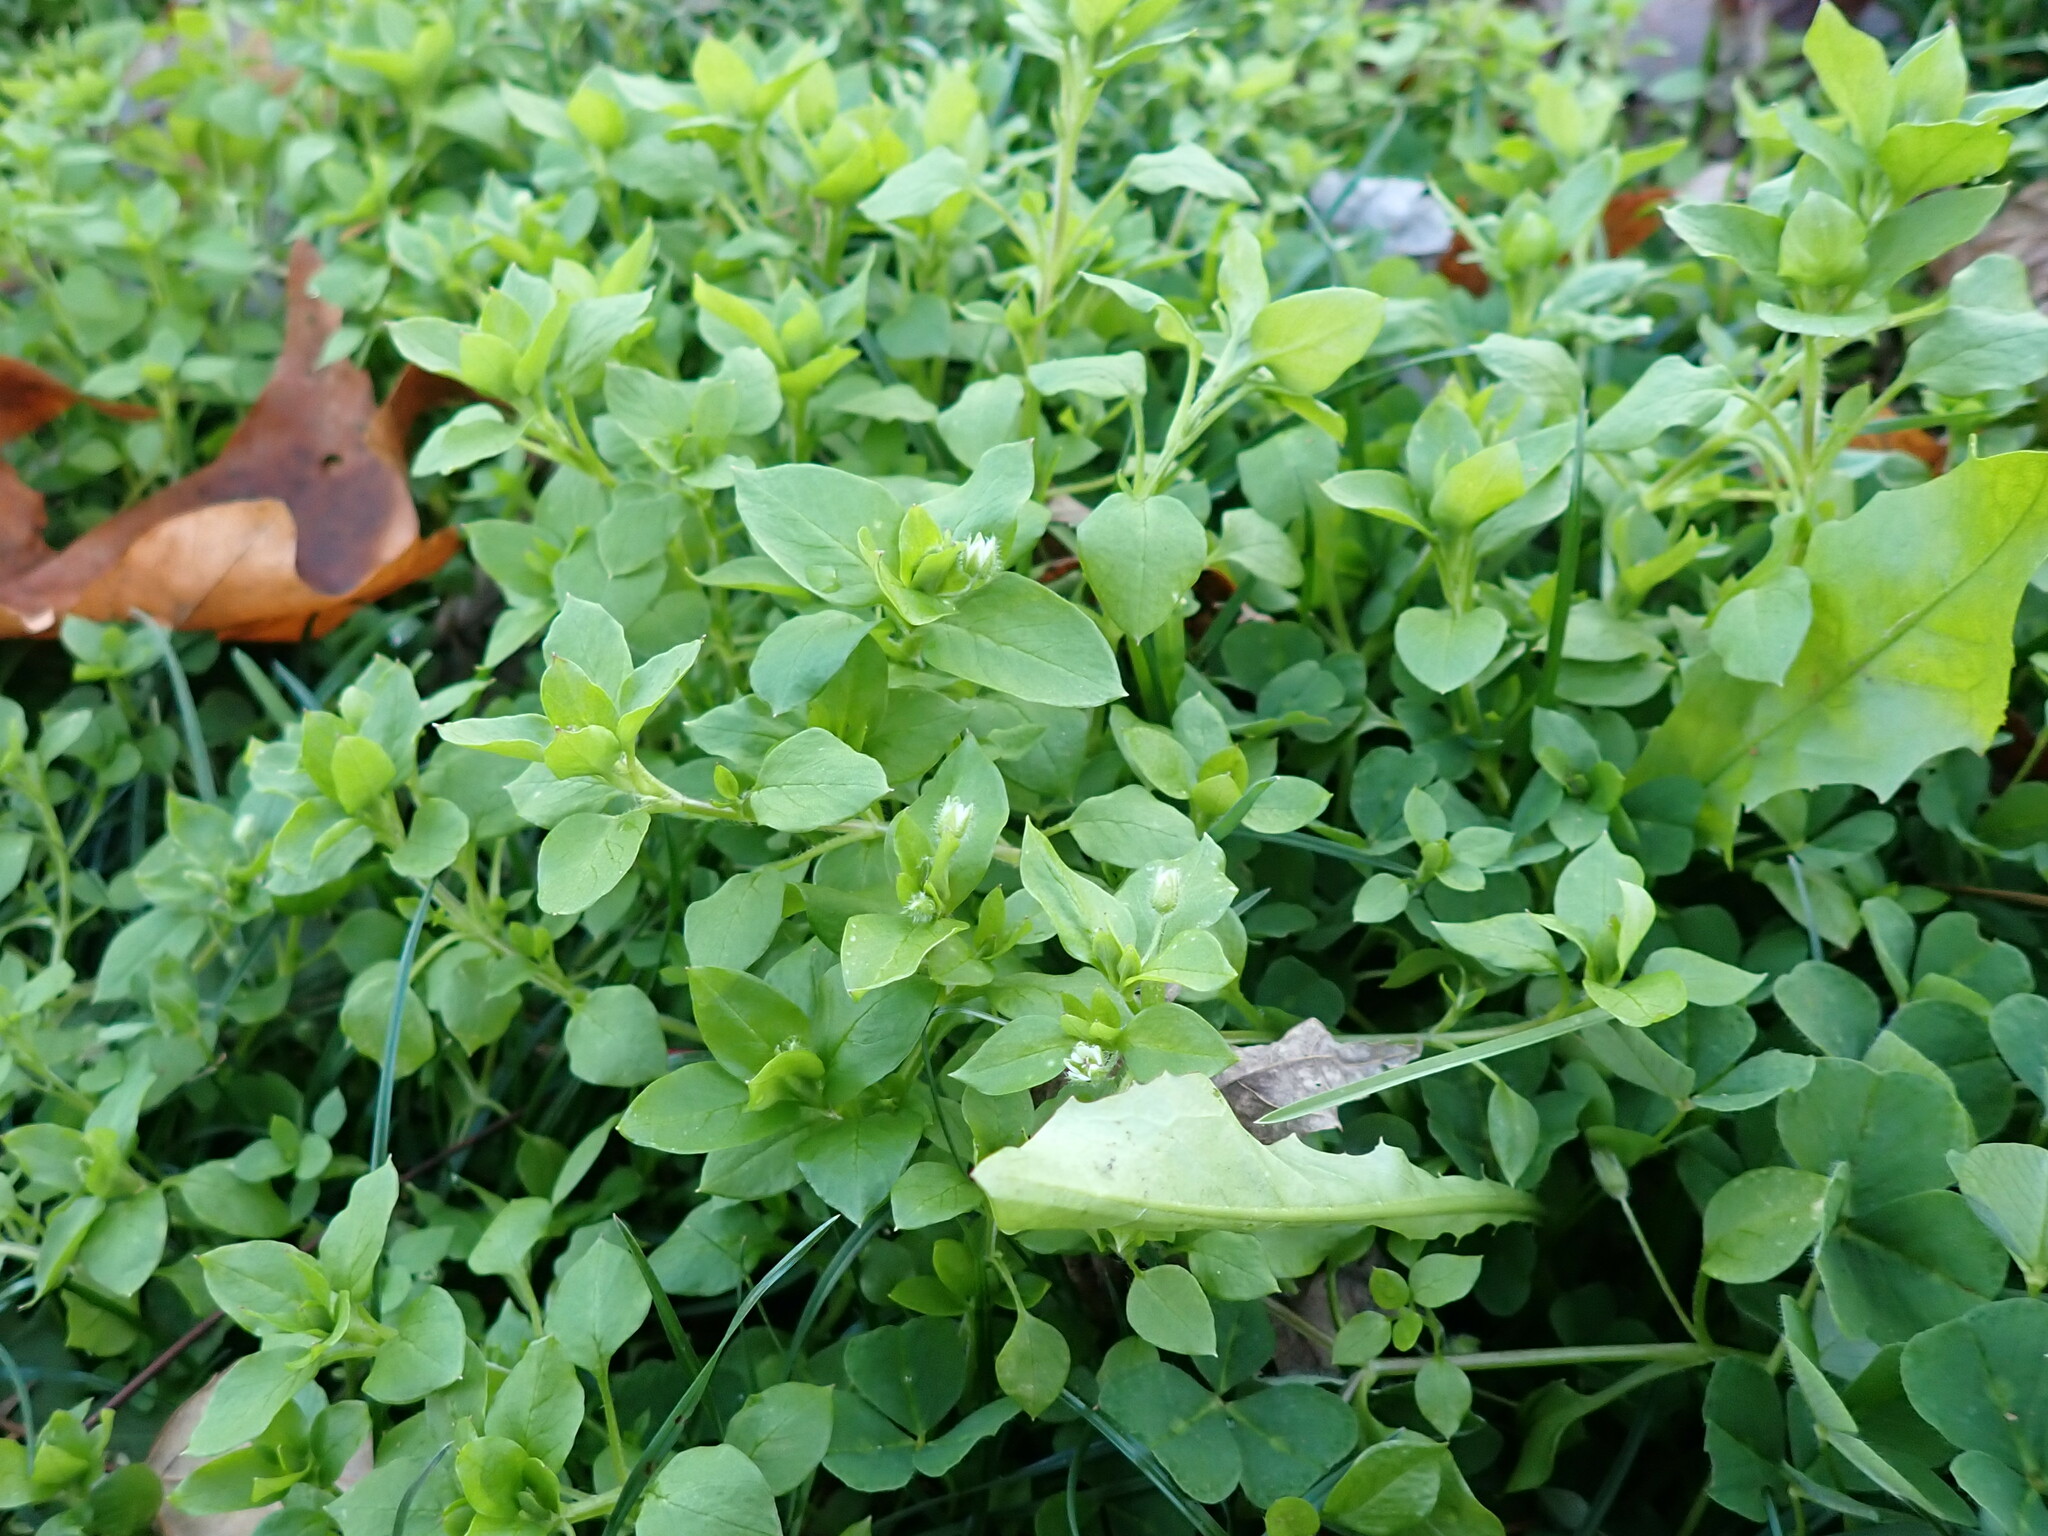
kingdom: Plantae
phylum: Tracheophyta
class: Magnoliopsida
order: Caryophyllales
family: Caryophyllaceae
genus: Stellaria
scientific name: Stellaria media
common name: Common chickweed
